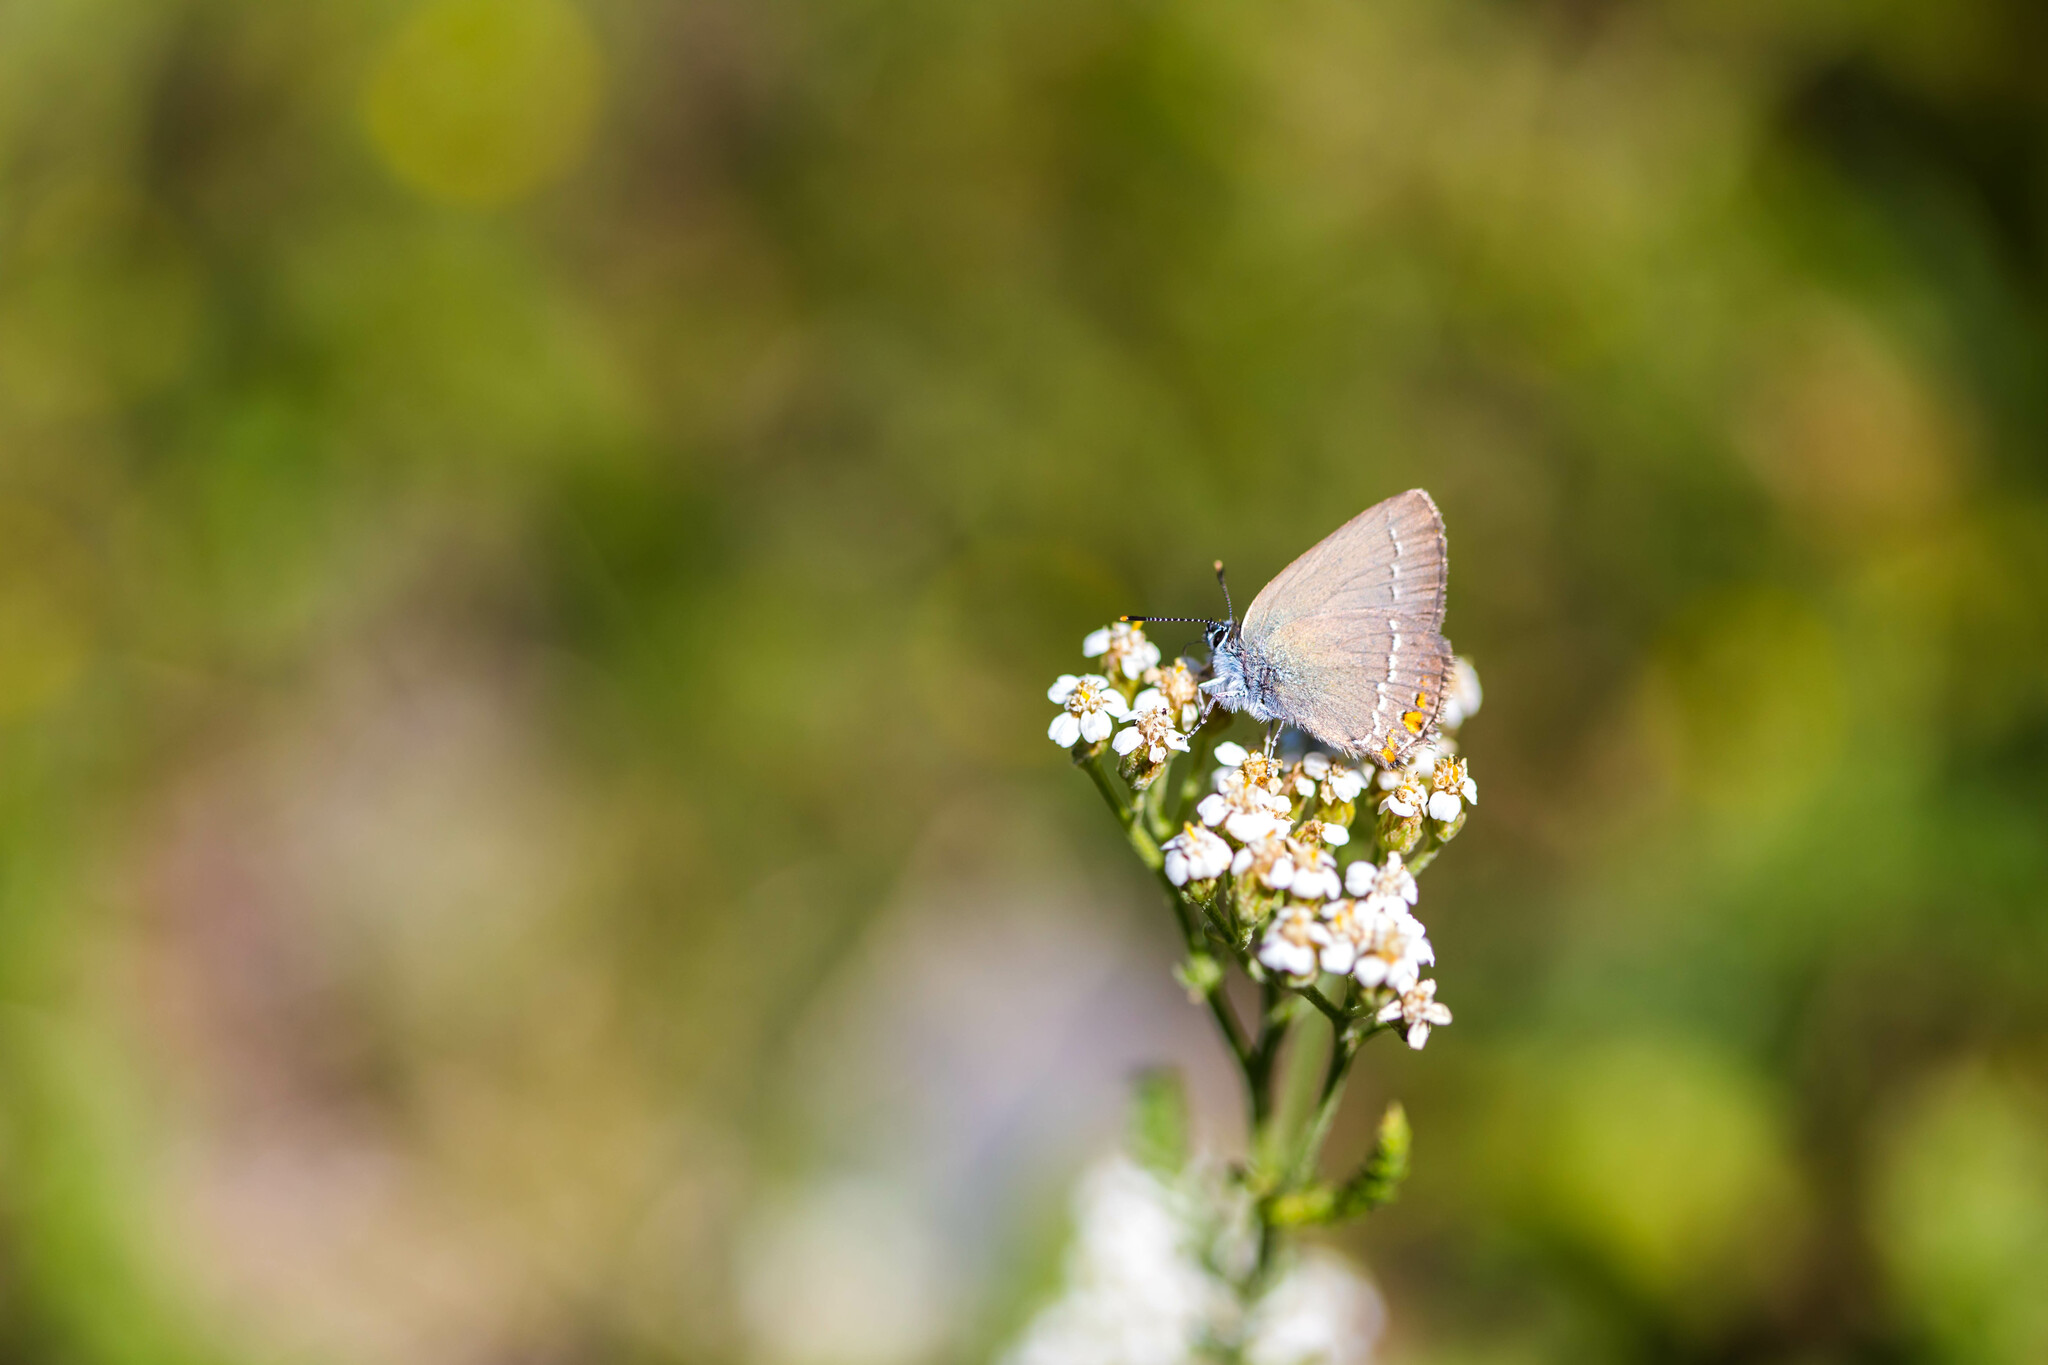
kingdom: Animalia
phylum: Arthropoda
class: Insecta
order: Lepidoptera
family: Lycaenidae
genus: Strymon
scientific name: Strymon acaciae
